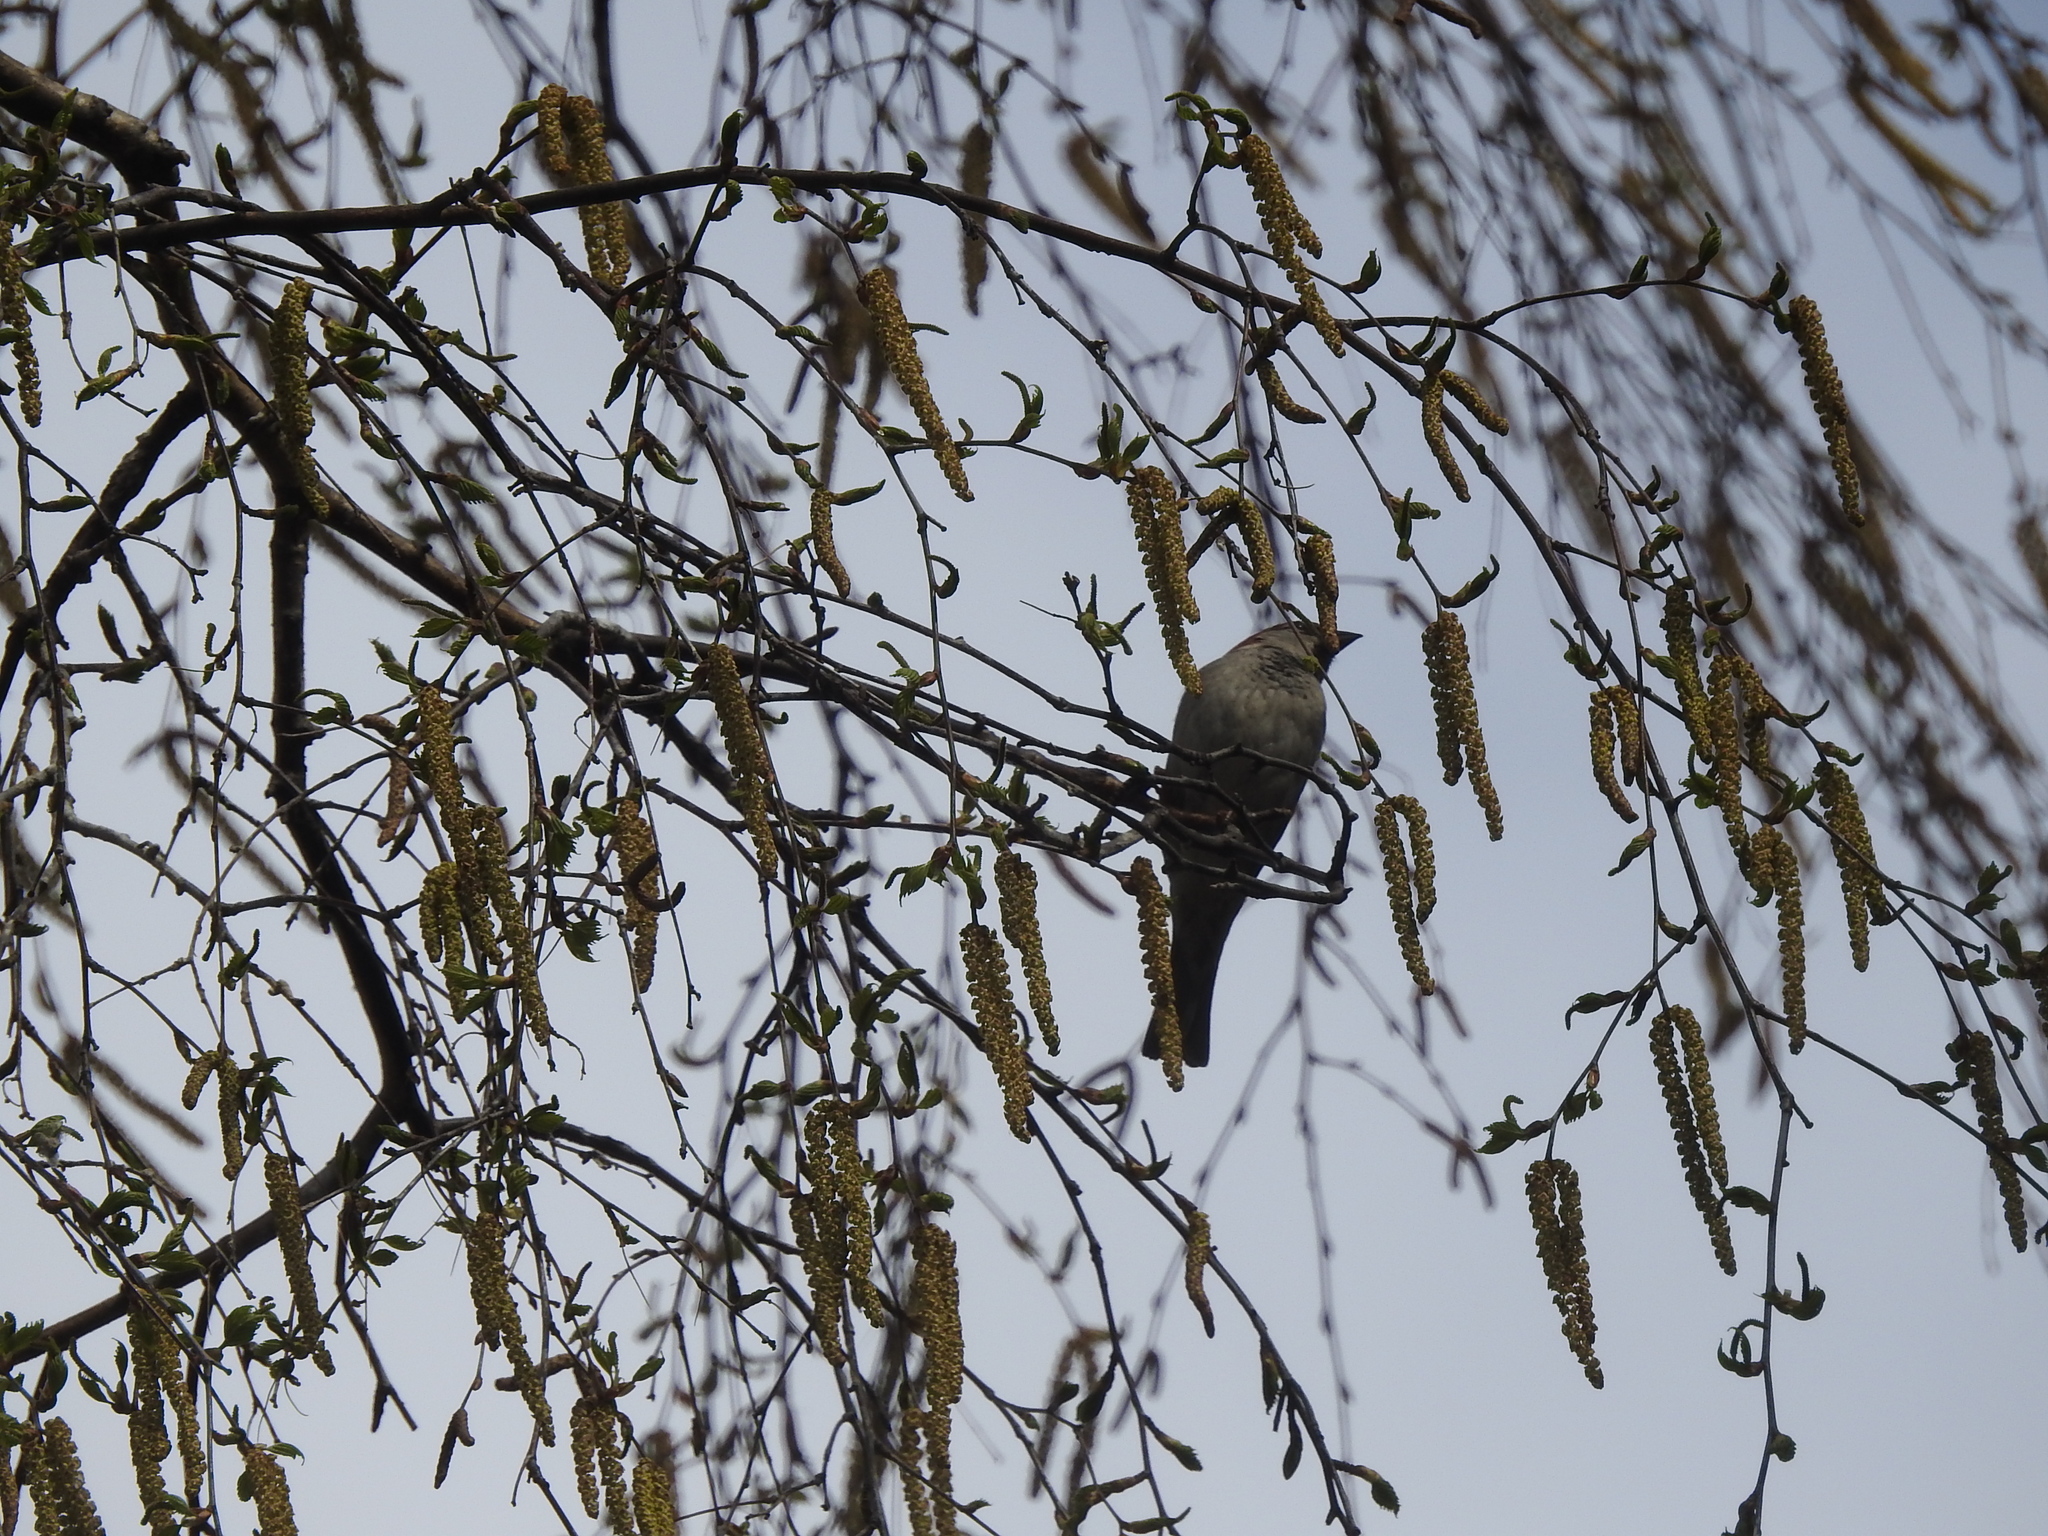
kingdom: Animalia
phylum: Chordata
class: Aves
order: Passeriformes
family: Passeridae
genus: Passer
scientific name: Passer domesticus
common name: House sparrow
